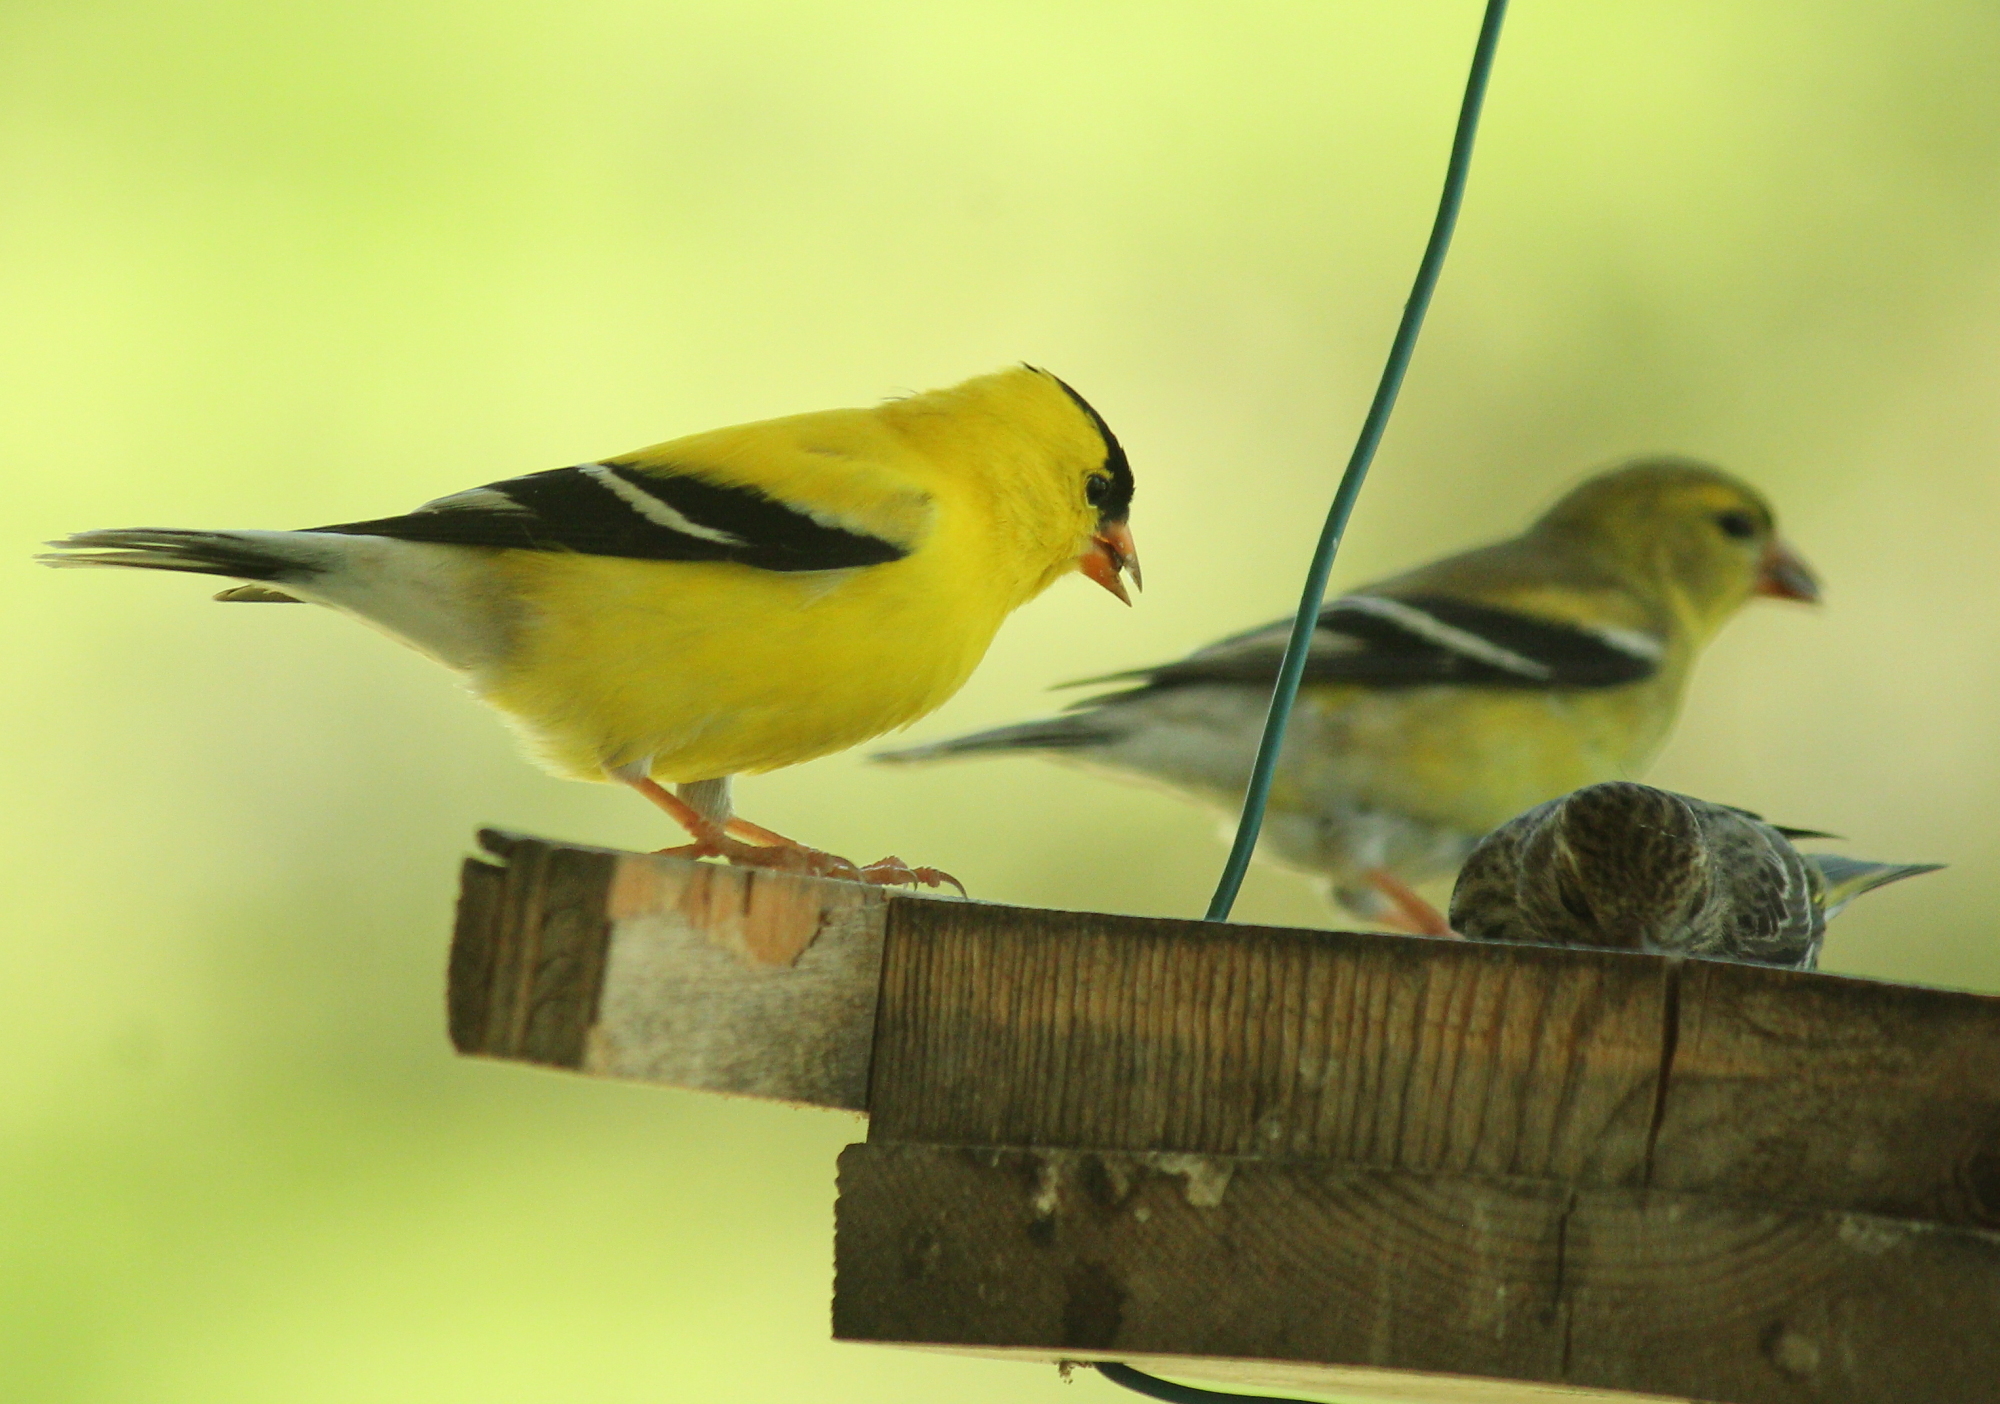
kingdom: Animalia
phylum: Chordata
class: Aves
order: Passeriformes
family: Fringillidae
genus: Spinus
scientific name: Spinus tristis
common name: American goldfinch
